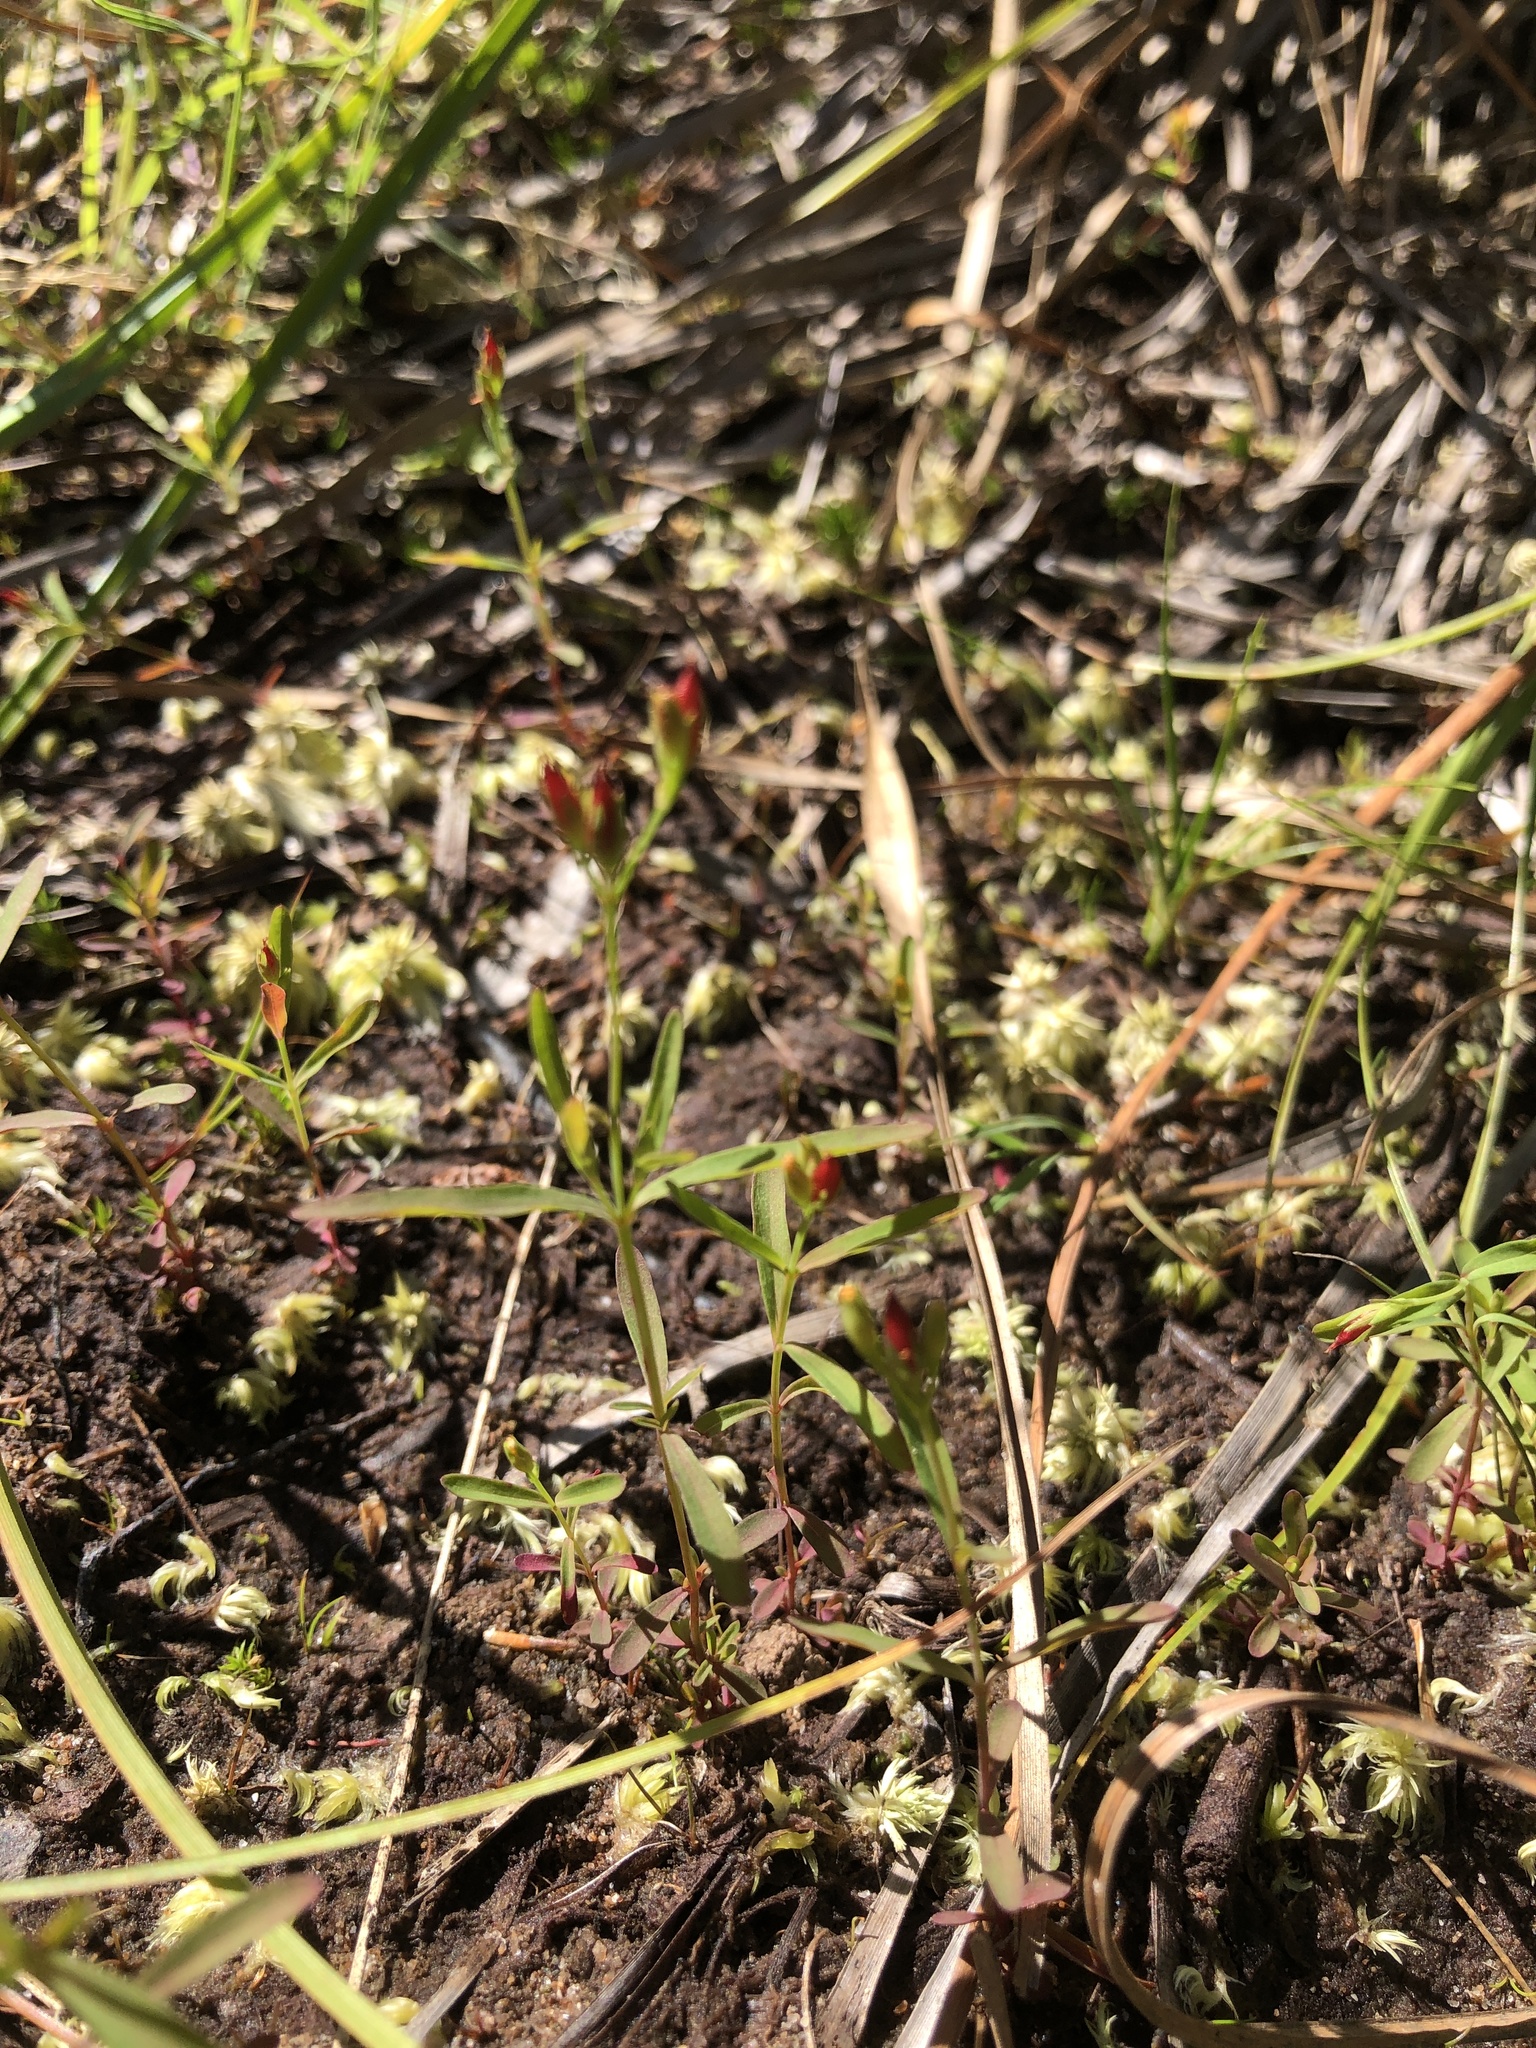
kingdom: Plantae
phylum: Tracheophyta
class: Magnoliopsida
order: Malpighiales
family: Hypericaceae
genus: Hypericum
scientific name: Hypericum canadense
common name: Irish st. john's-wort
